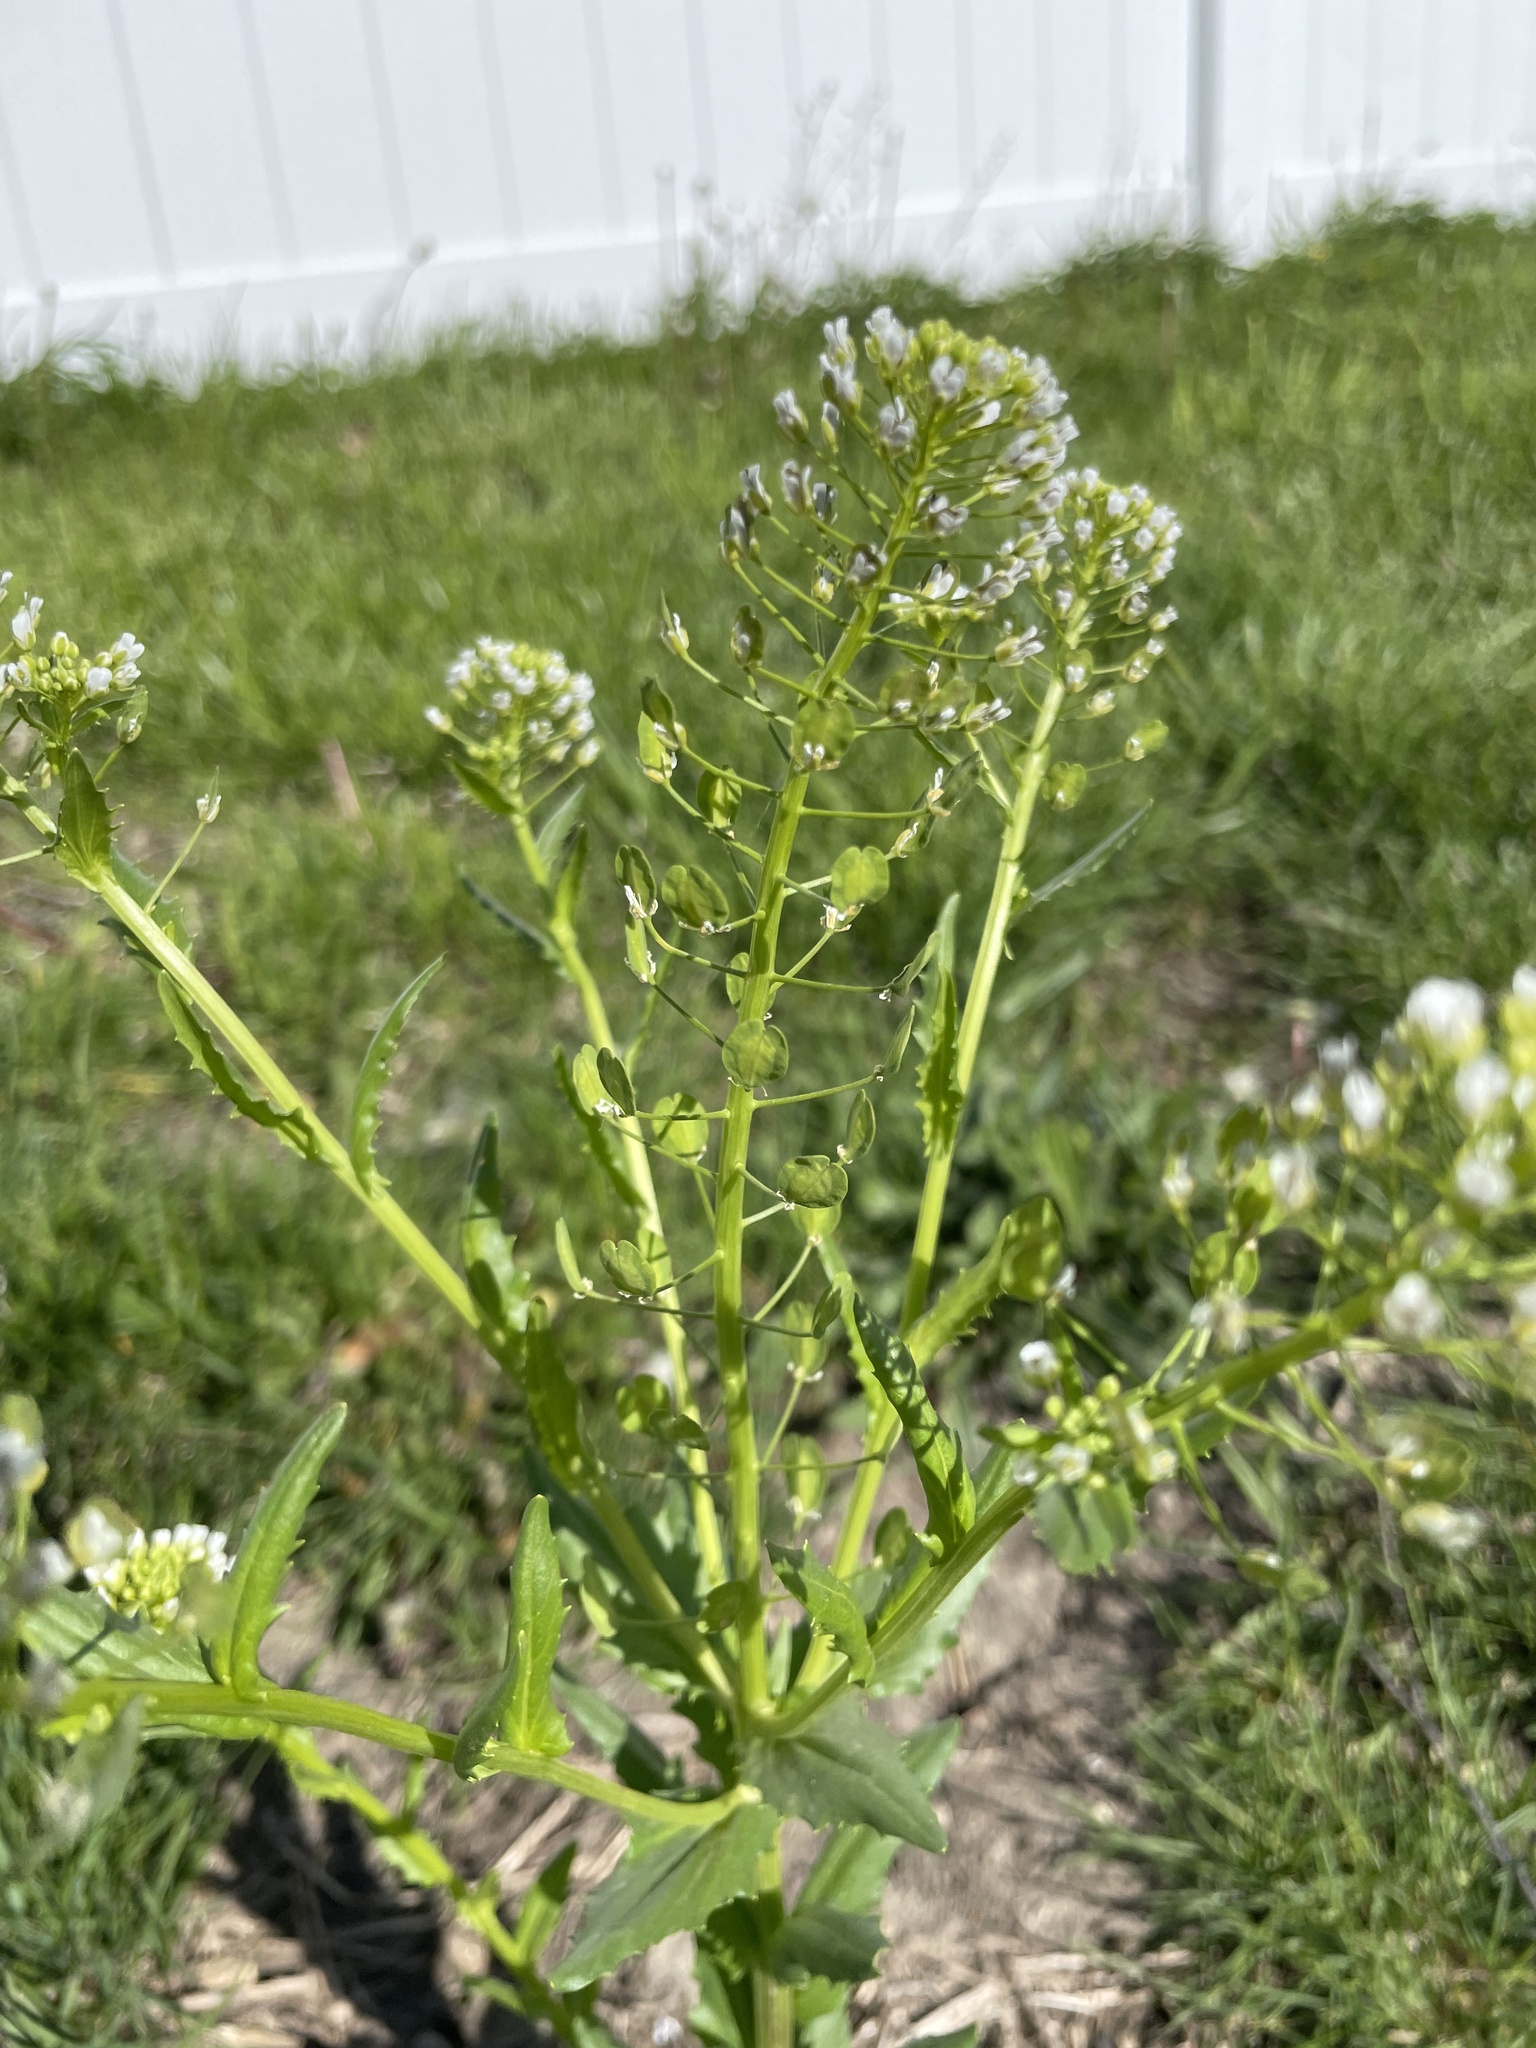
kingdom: Plantae
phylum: Tracheophyta
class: Magnoliopsida
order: Brassicales
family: Brassicaceae
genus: Thlaspi
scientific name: Thlaspi arvense
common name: Field pennycress
